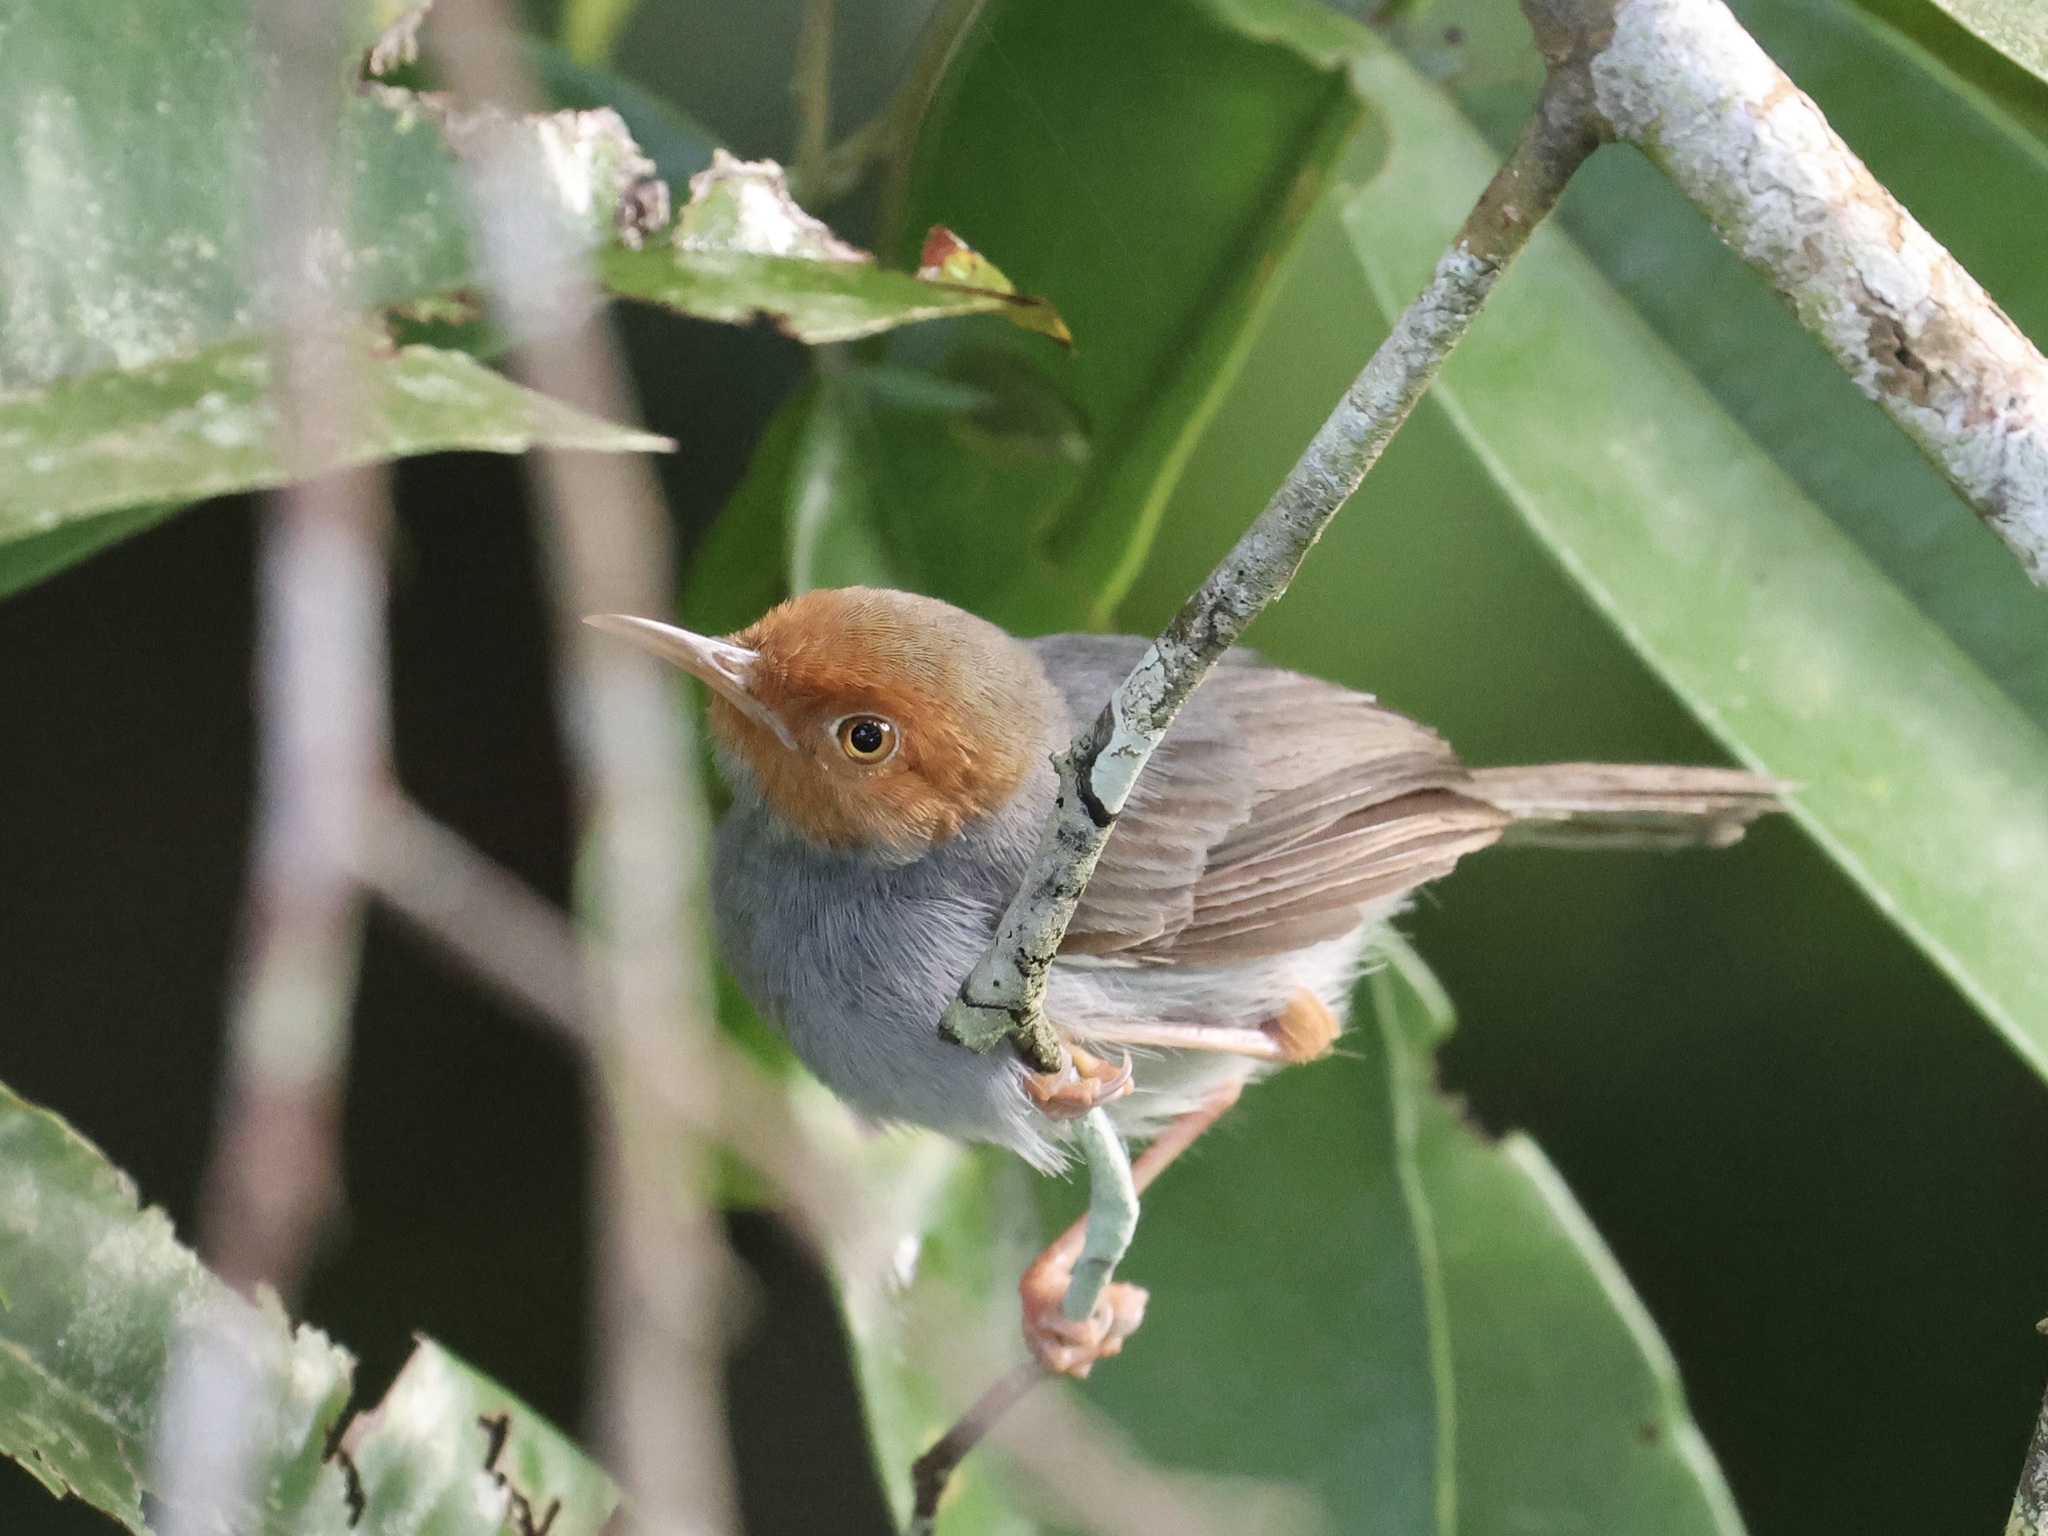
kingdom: Animalia
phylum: Chordata
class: Aves
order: Passeriformes
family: Cisticolidae
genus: Orthotomus
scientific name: Orthotomus ruficeps
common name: Ashy tailorbird
